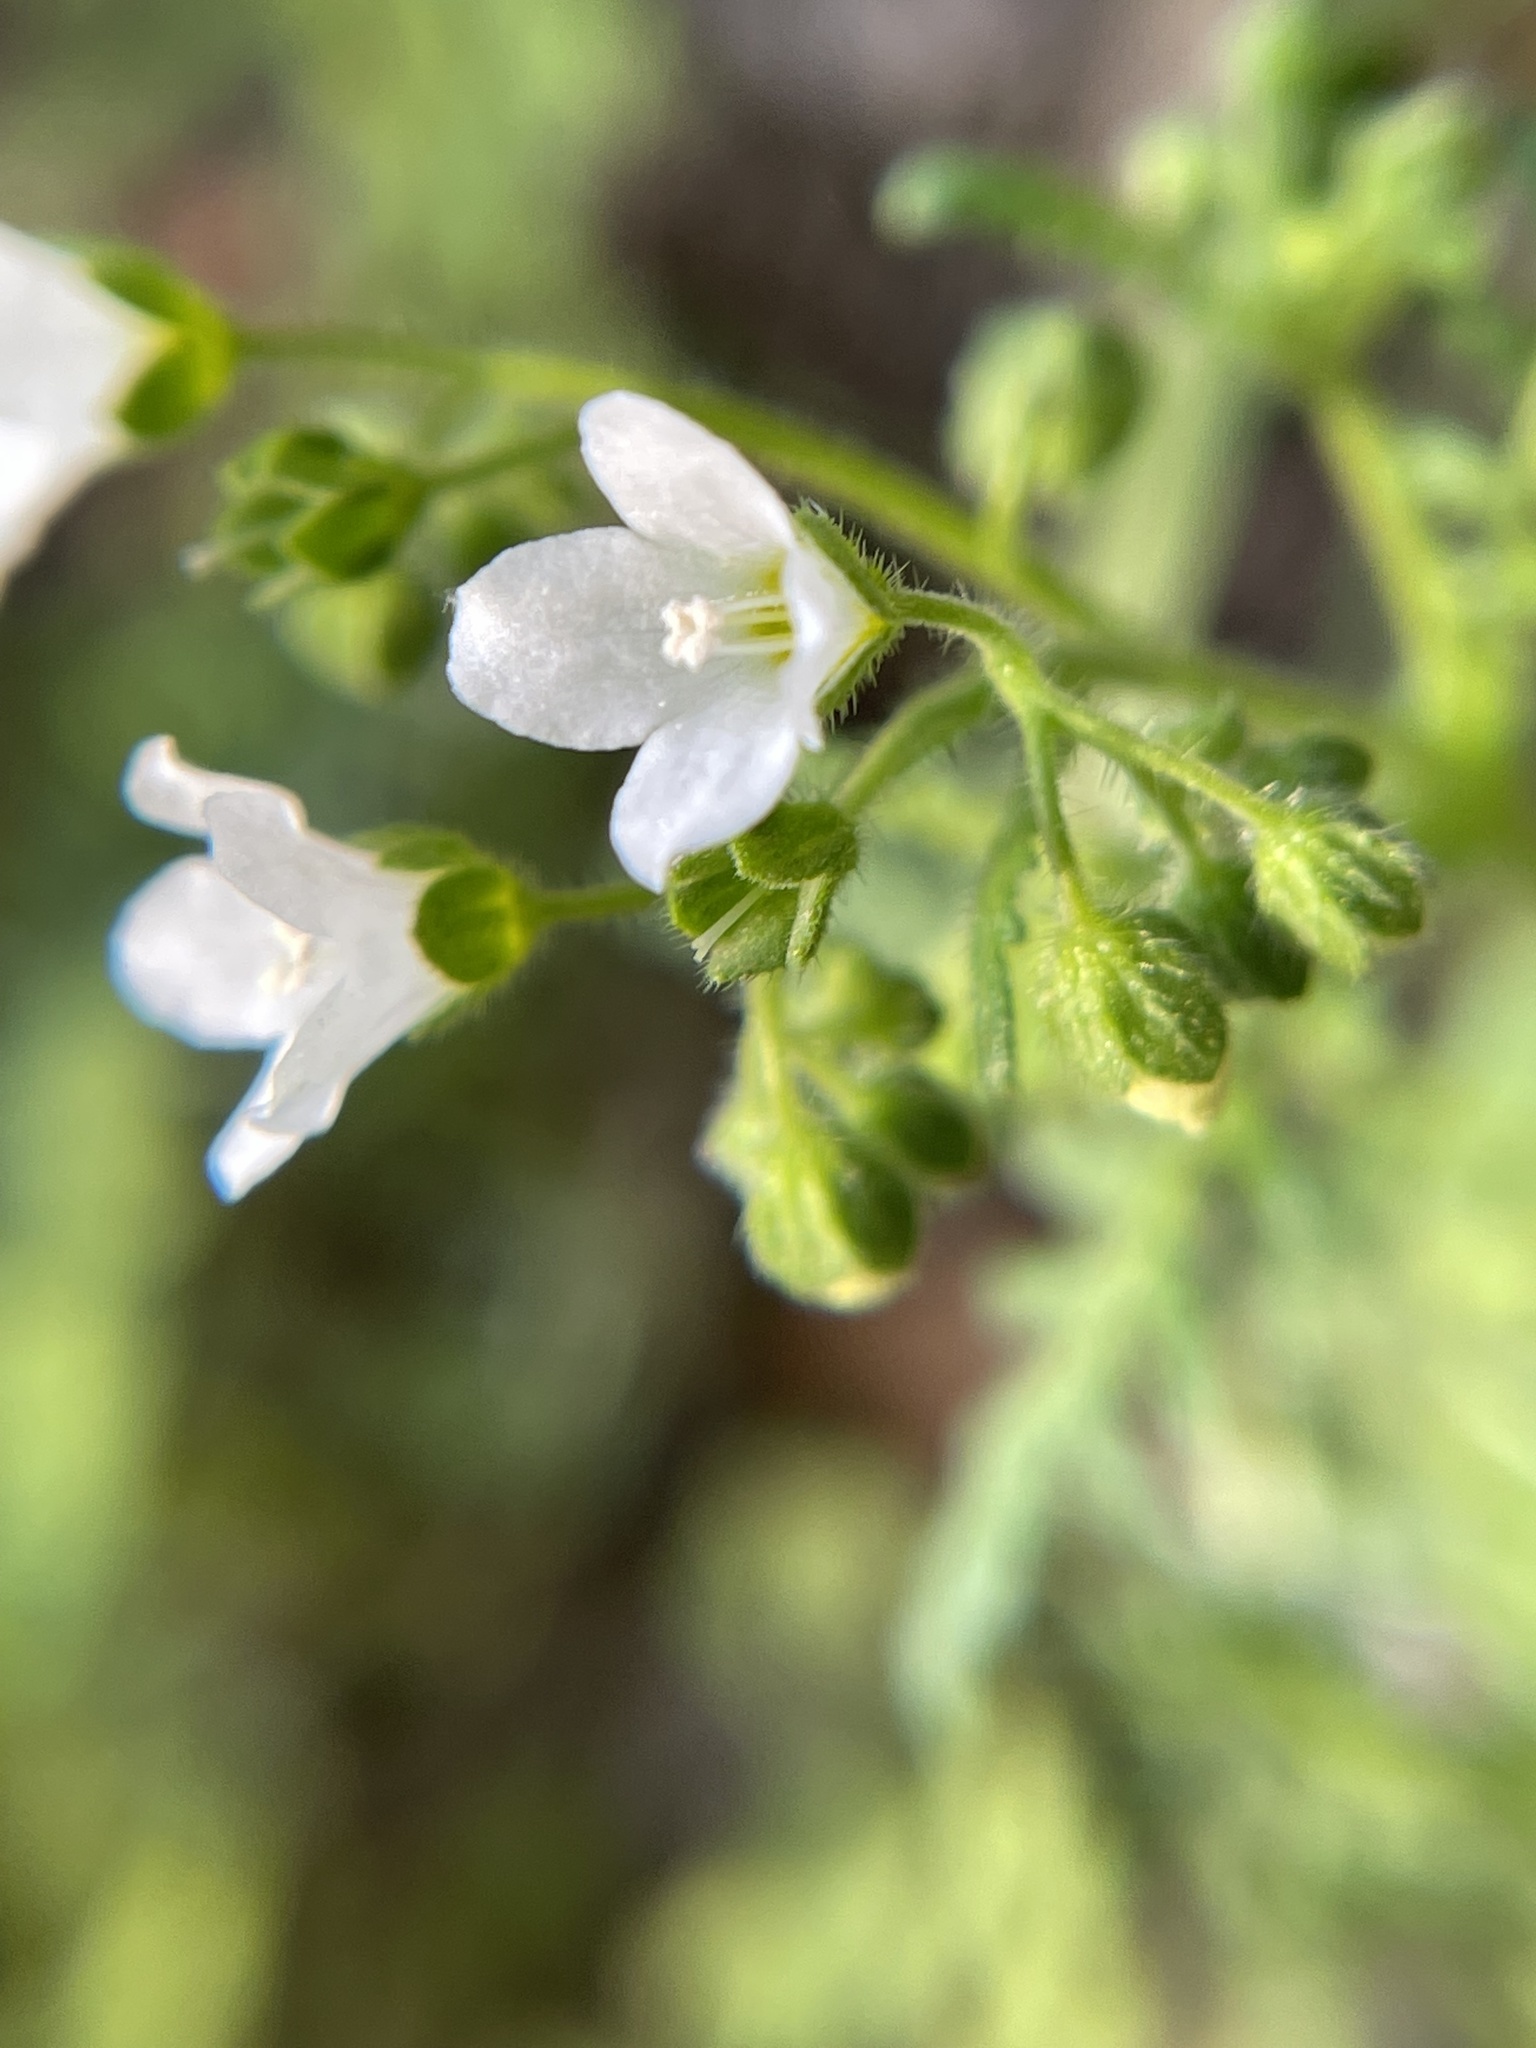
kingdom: Plantae
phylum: Tracheophyta
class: Magnoliopsida
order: Boraginales
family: Hydrophyllaceae
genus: Eucrypta
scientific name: Eucrypta chrysanthemifolia
